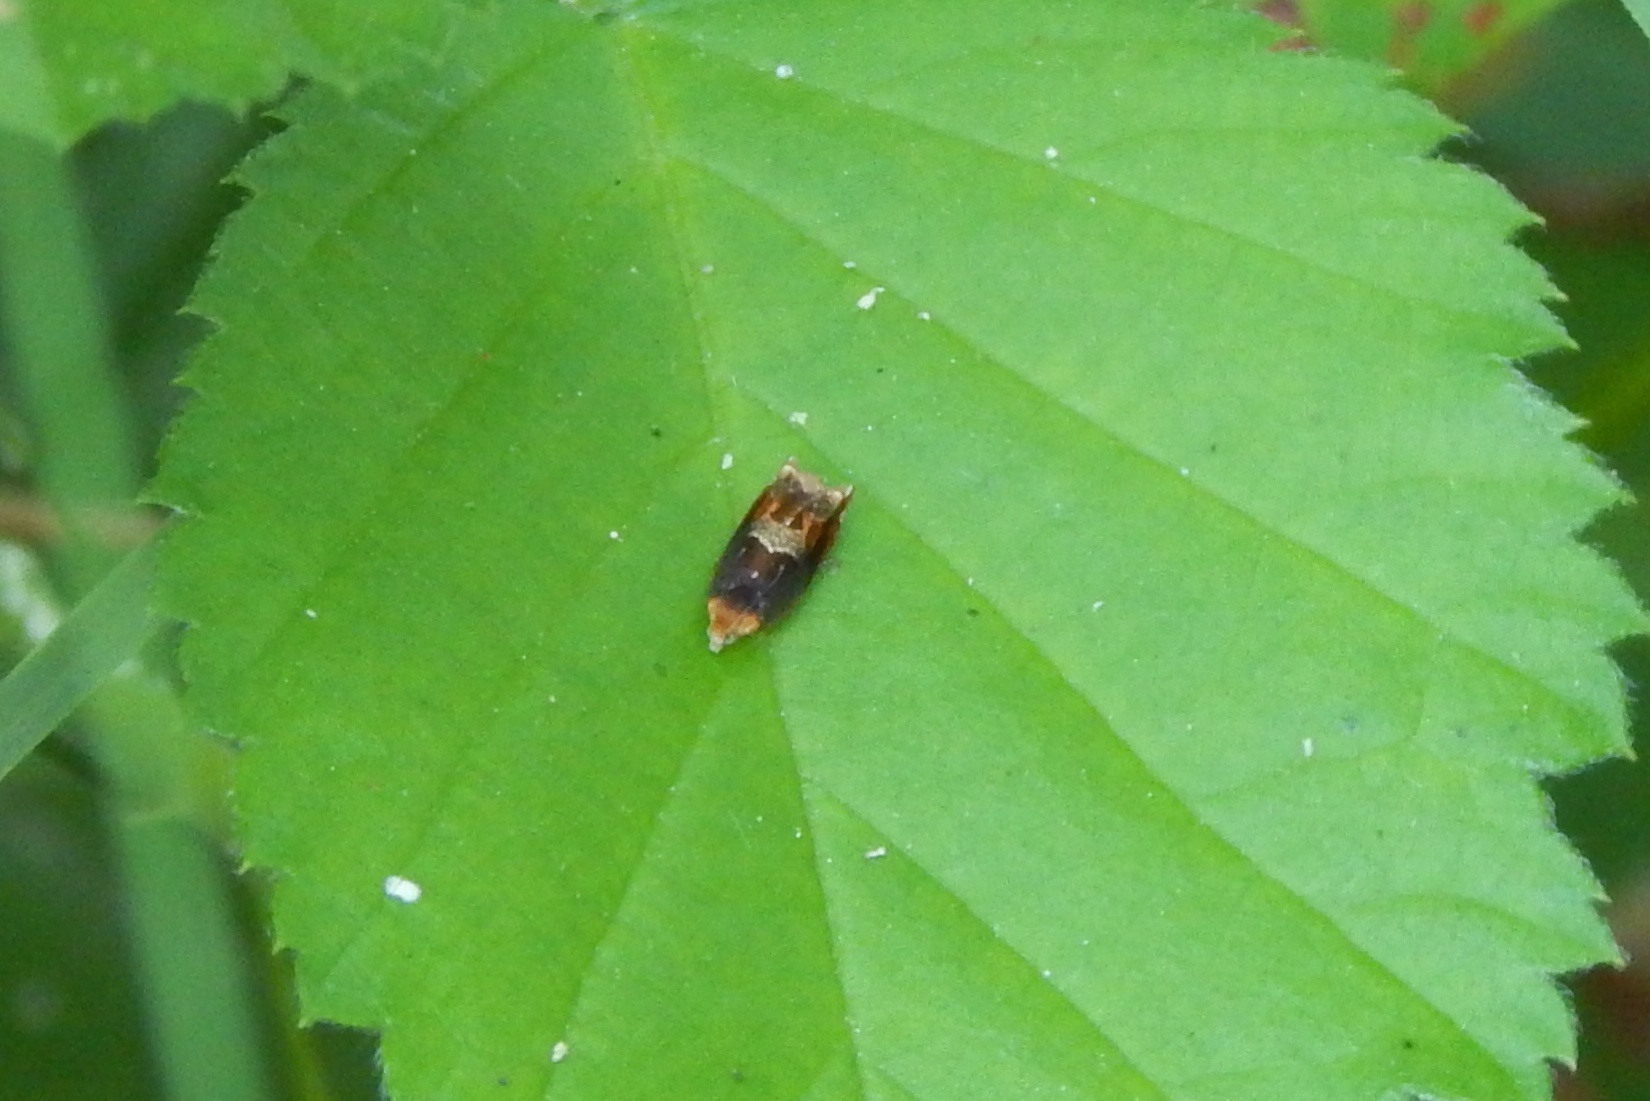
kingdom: Animalia
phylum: Arthropoda
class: Insecta
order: Lepidoptera
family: Tortricidae
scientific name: Tortricidae
